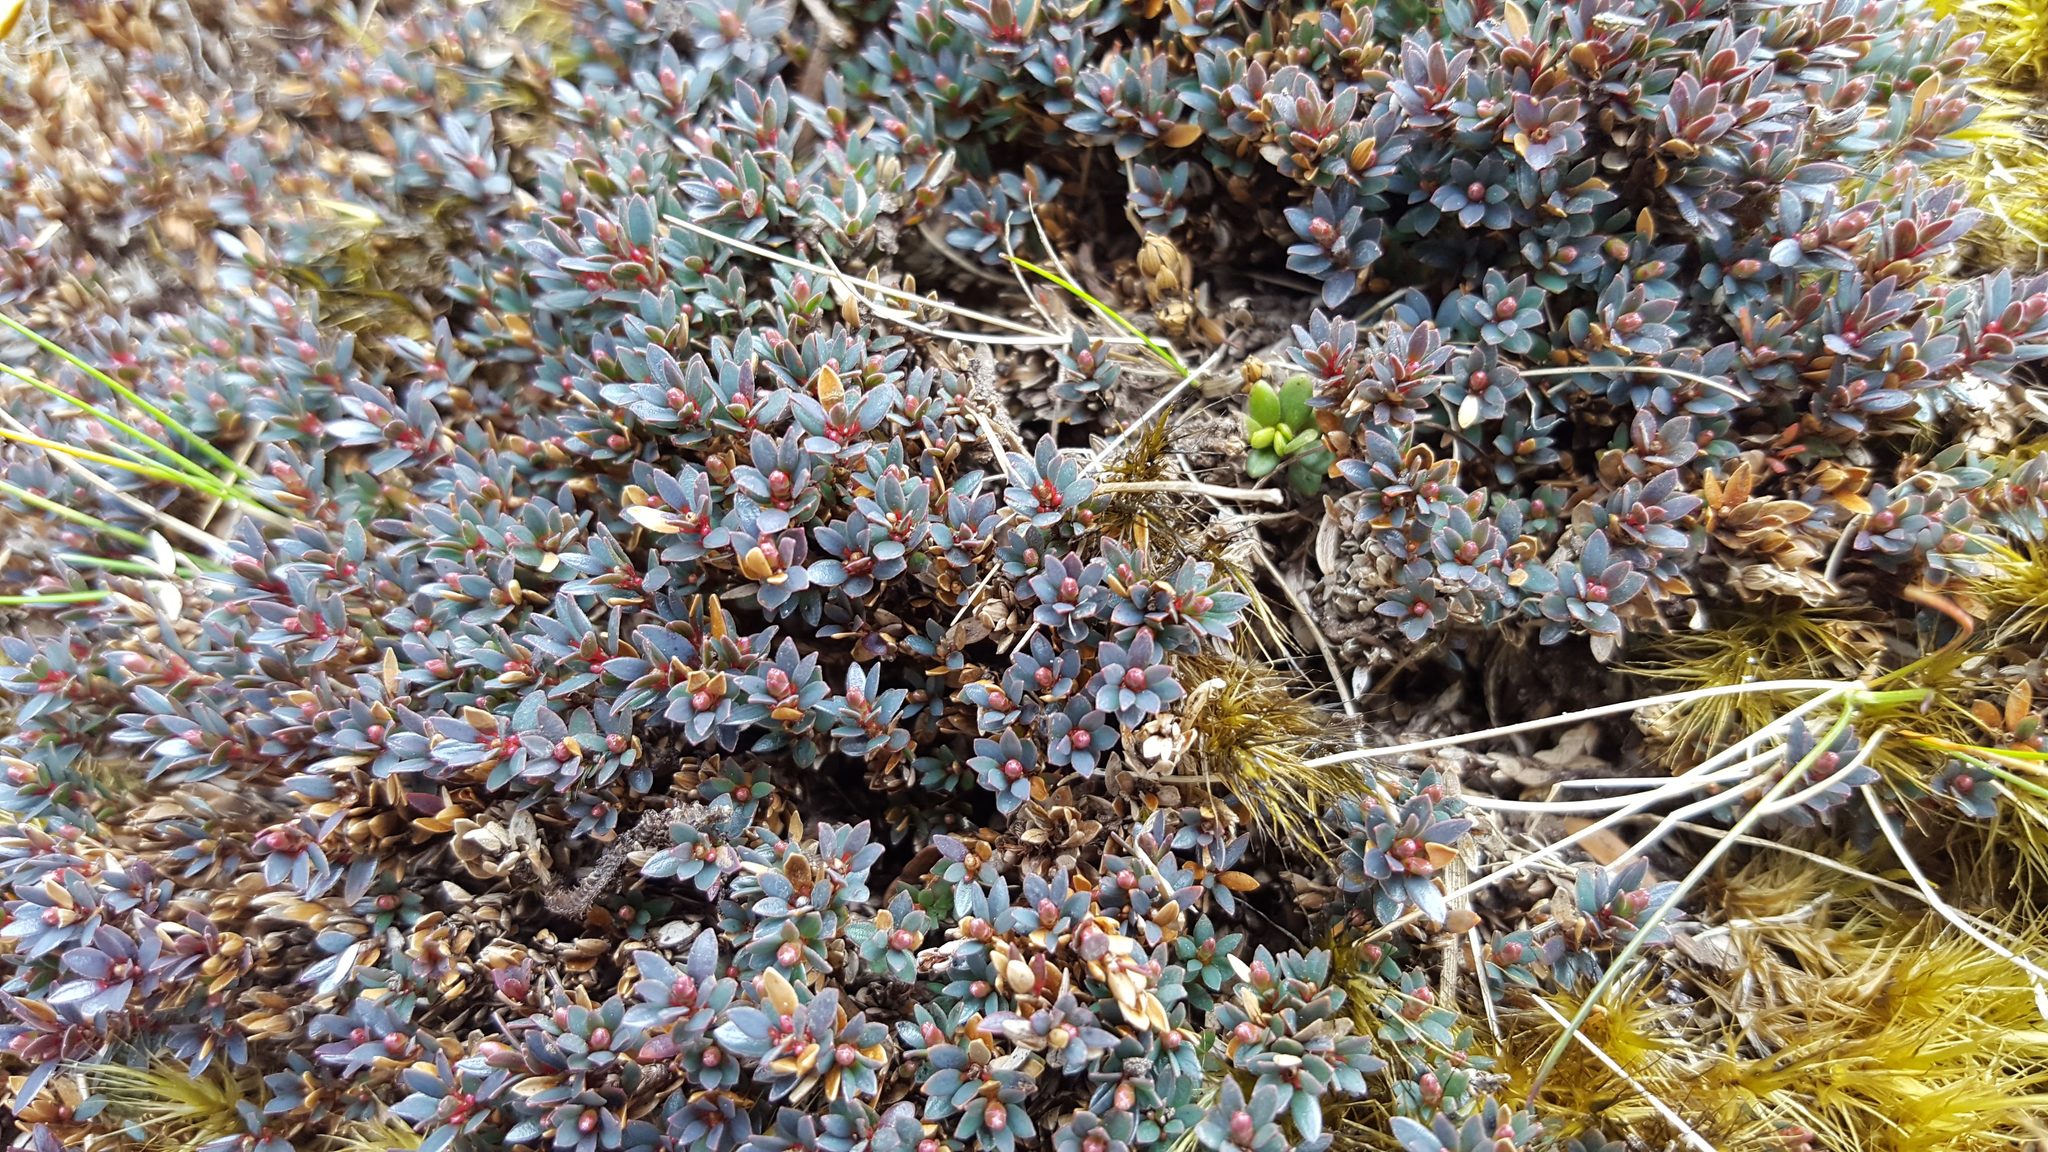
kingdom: Plantae
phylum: Tracheophyta
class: Magnoliopsida
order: Ericales
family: Ericaceae
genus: Pentachondra
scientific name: Pentachondra pumila
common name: Carpet-heath
